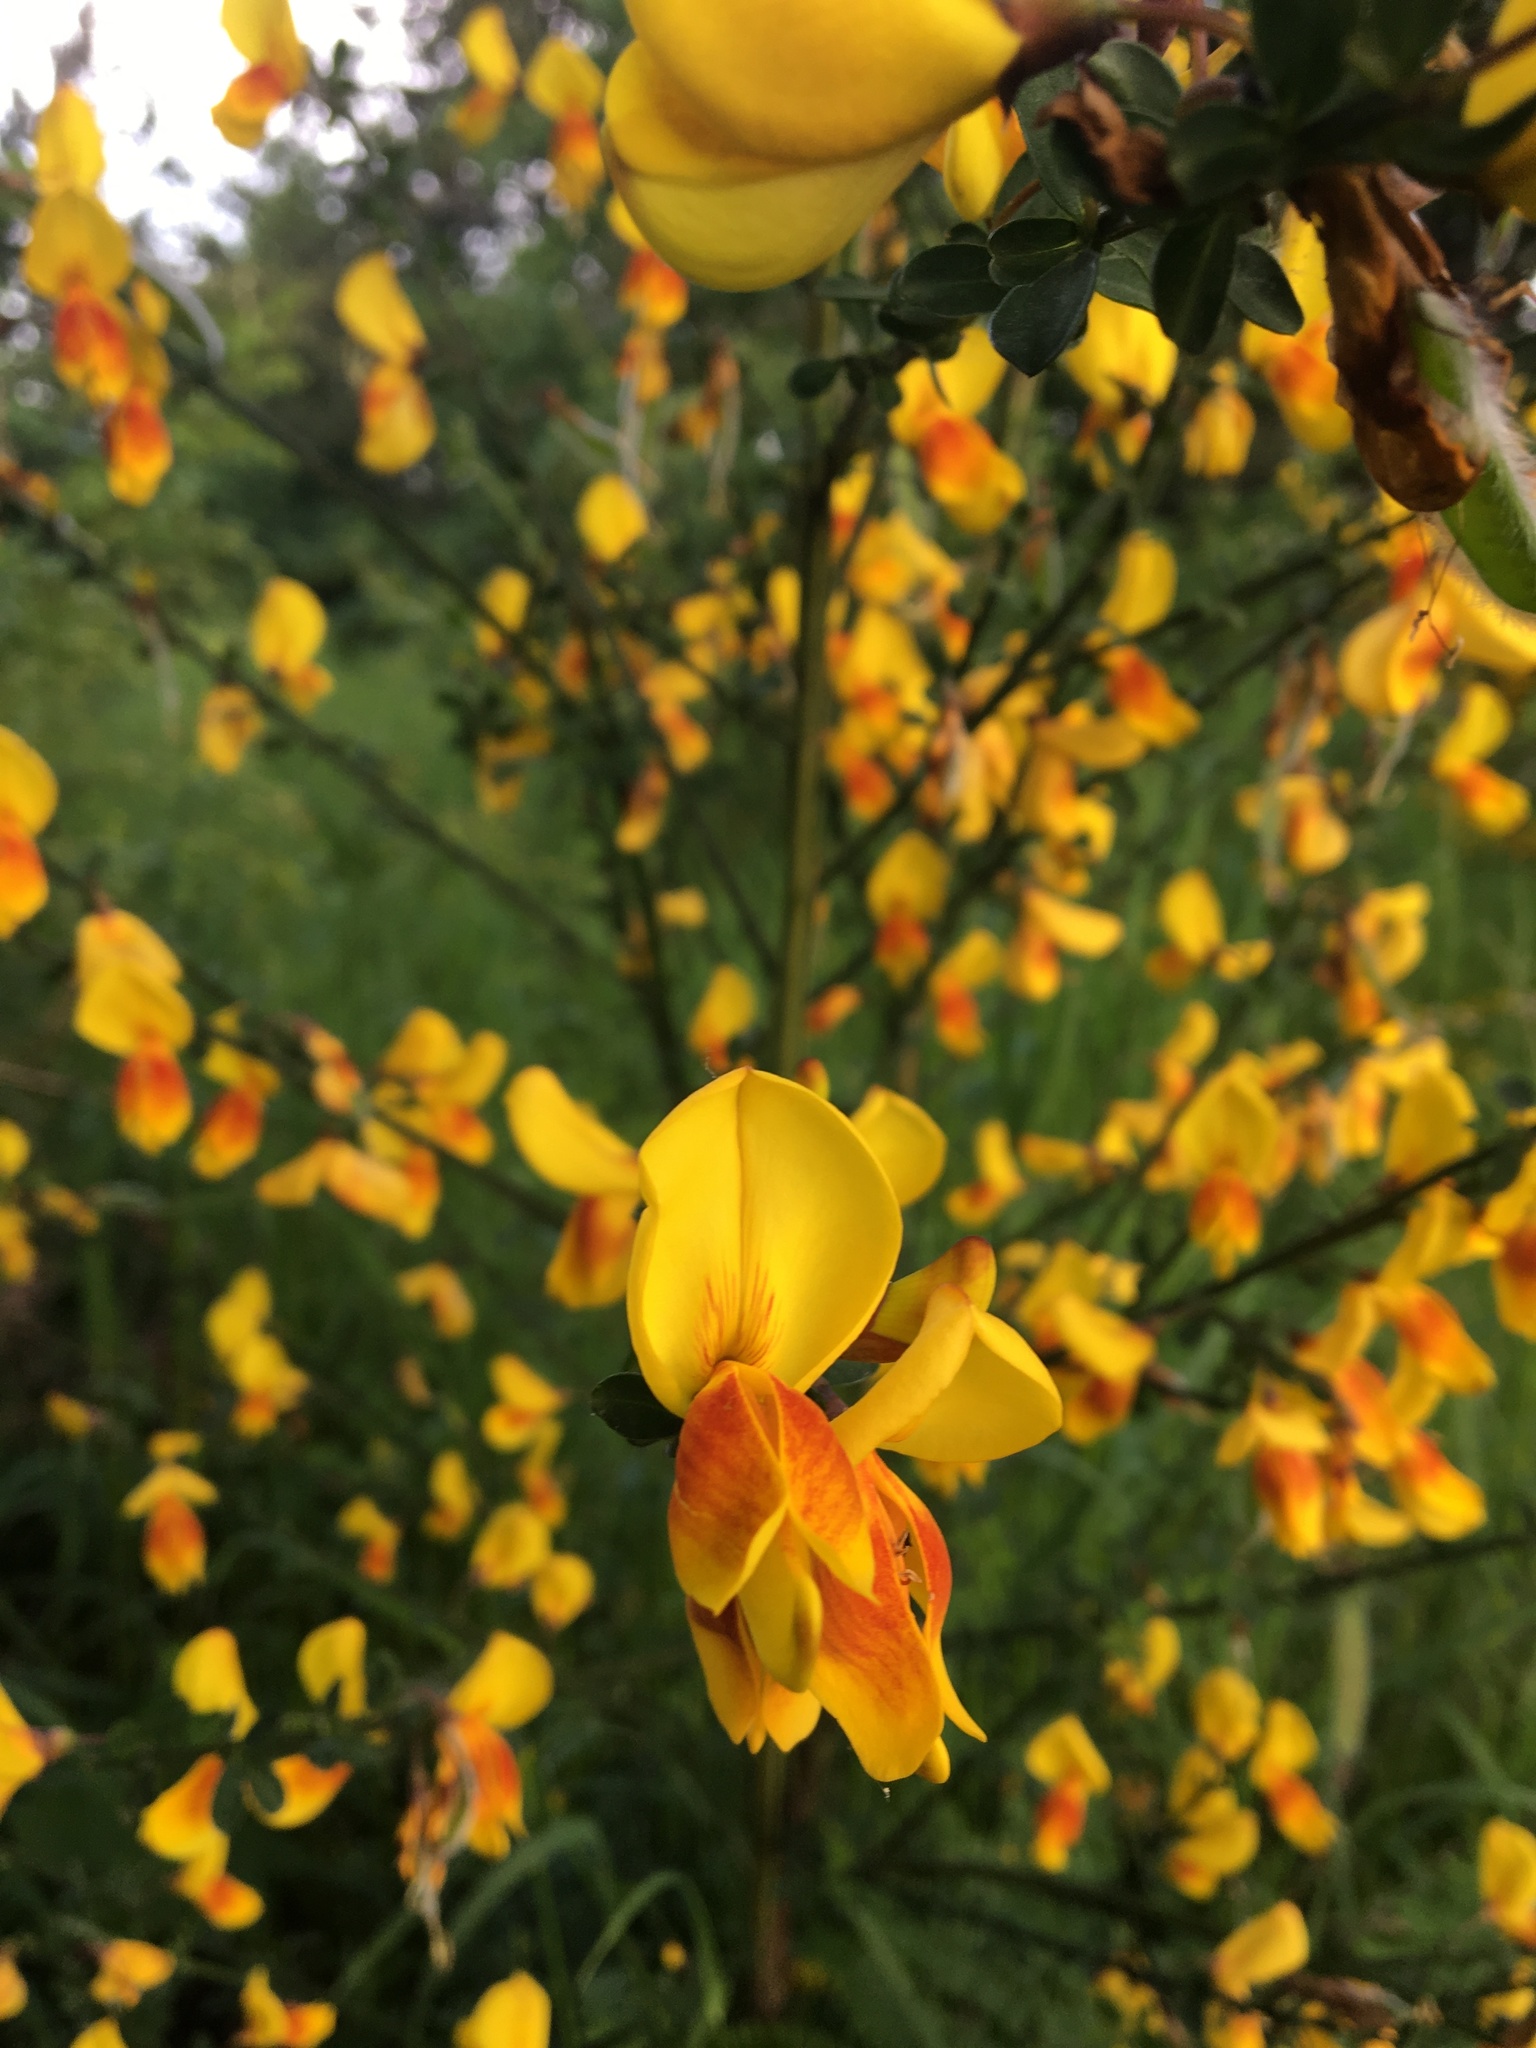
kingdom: Plantae
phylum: Tracheophyta
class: Magnoliopsida
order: Fabales
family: Fabaceae
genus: Cytisus
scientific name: Cytisus scoparius
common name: Scotch broom
